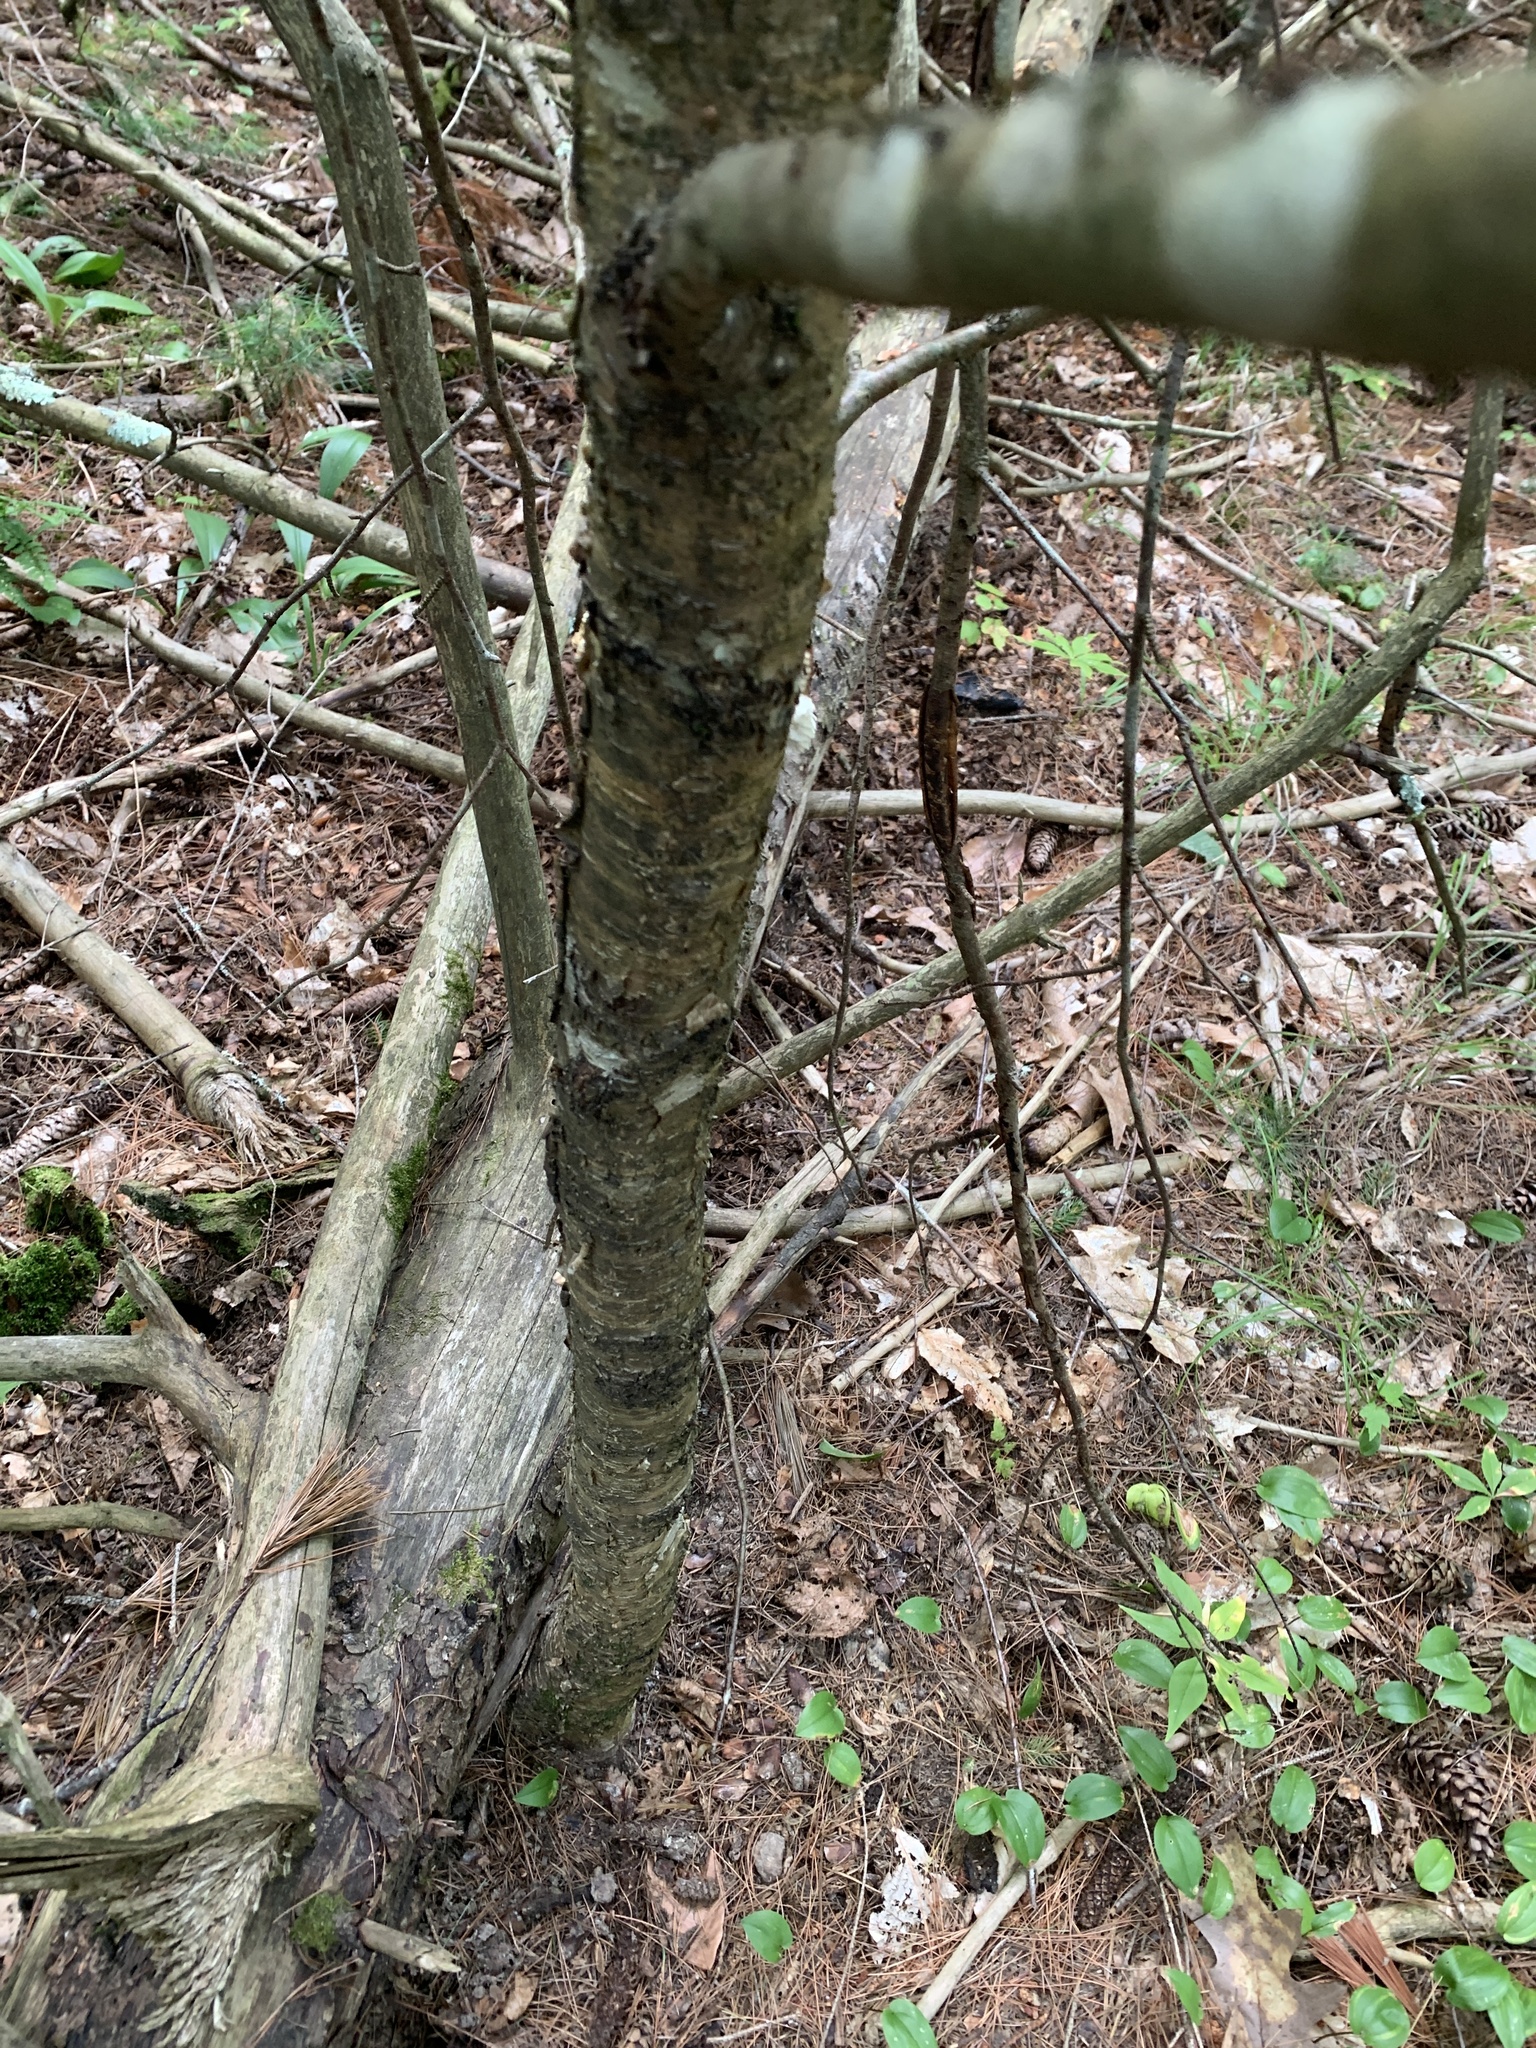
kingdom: Plantae
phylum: Tracheophyta
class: Magnoliopsida
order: Fagales
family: Betulaceae
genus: Betula
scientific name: Betula alleghaniensis
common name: Yellow birch
